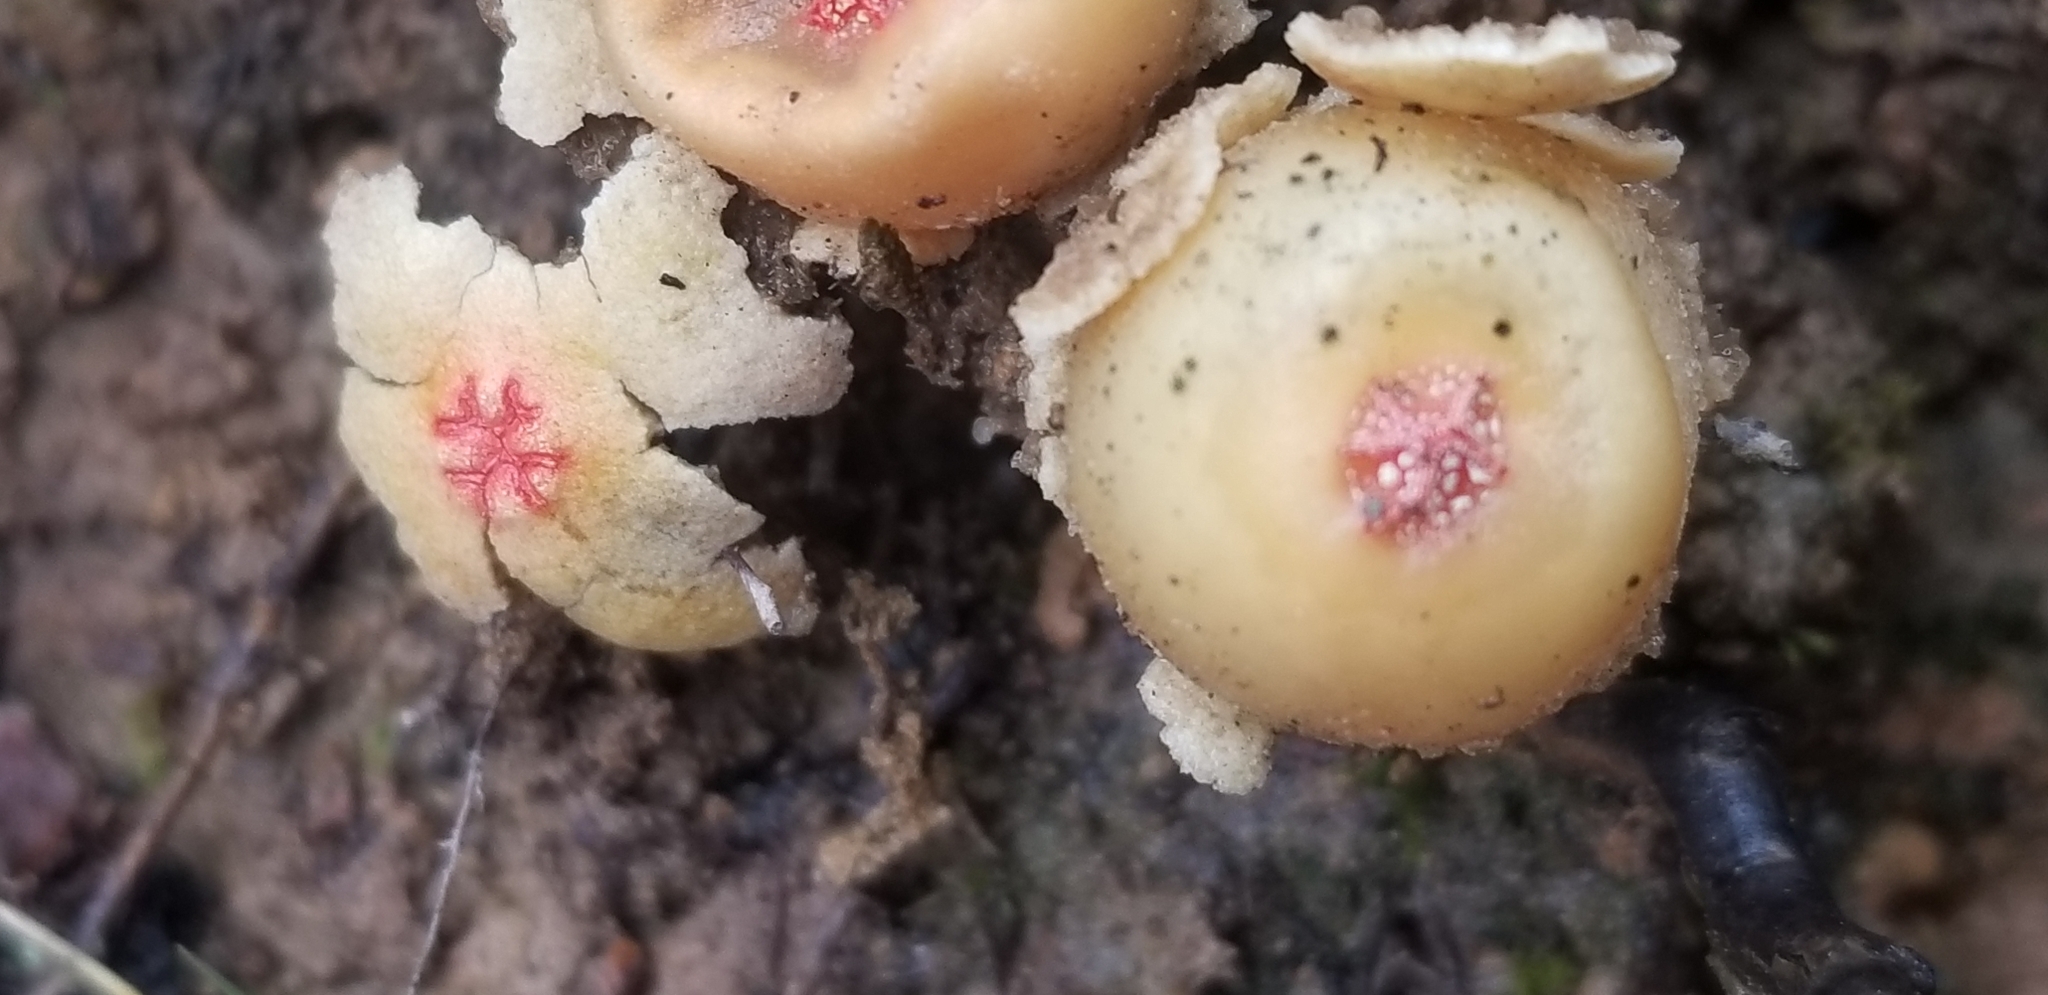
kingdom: Fungi
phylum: Basidiomycota
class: Agaricomycetes
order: Boletales
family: Calostomataceae
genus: Calostoma
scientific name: Calostoma lutescens
